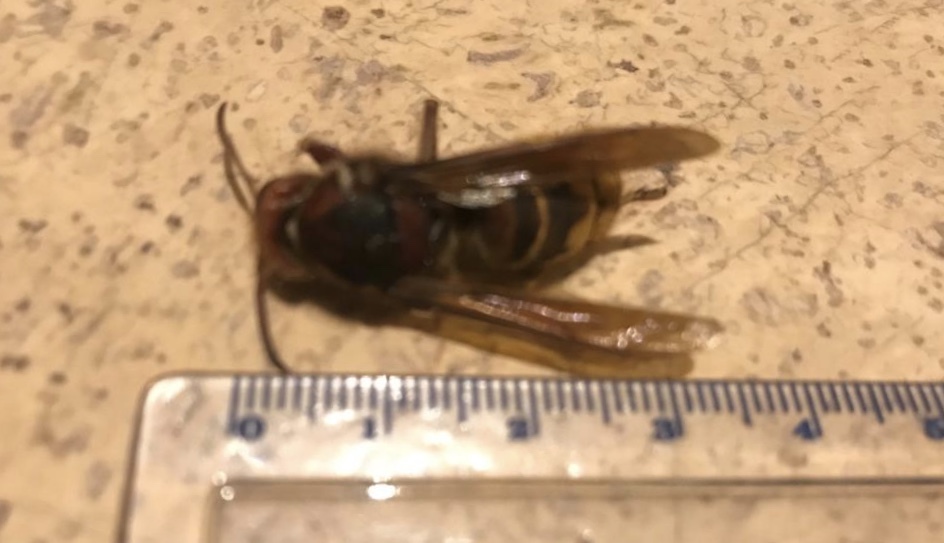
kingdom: Animalia
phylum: Arthropoda
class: Insecta
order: Hymenoptera
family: Vespidae
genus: Vespa
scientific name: Vespa crabro
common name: Hornet
